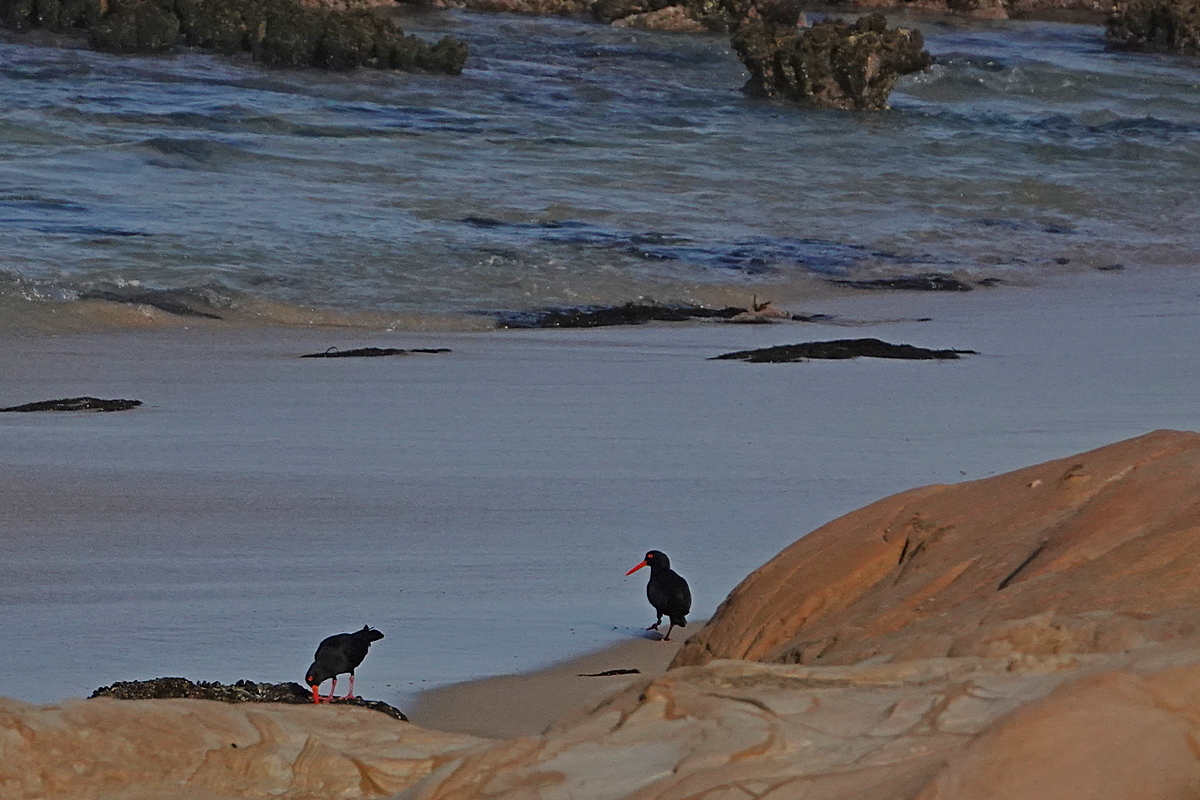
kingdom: Animalia
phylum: Chordata
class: Aves
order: Charadriiformes
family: Haematopodidae
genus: Haematopus
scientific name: Haematopus fuliginosus
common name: Sooty oystercatcher
